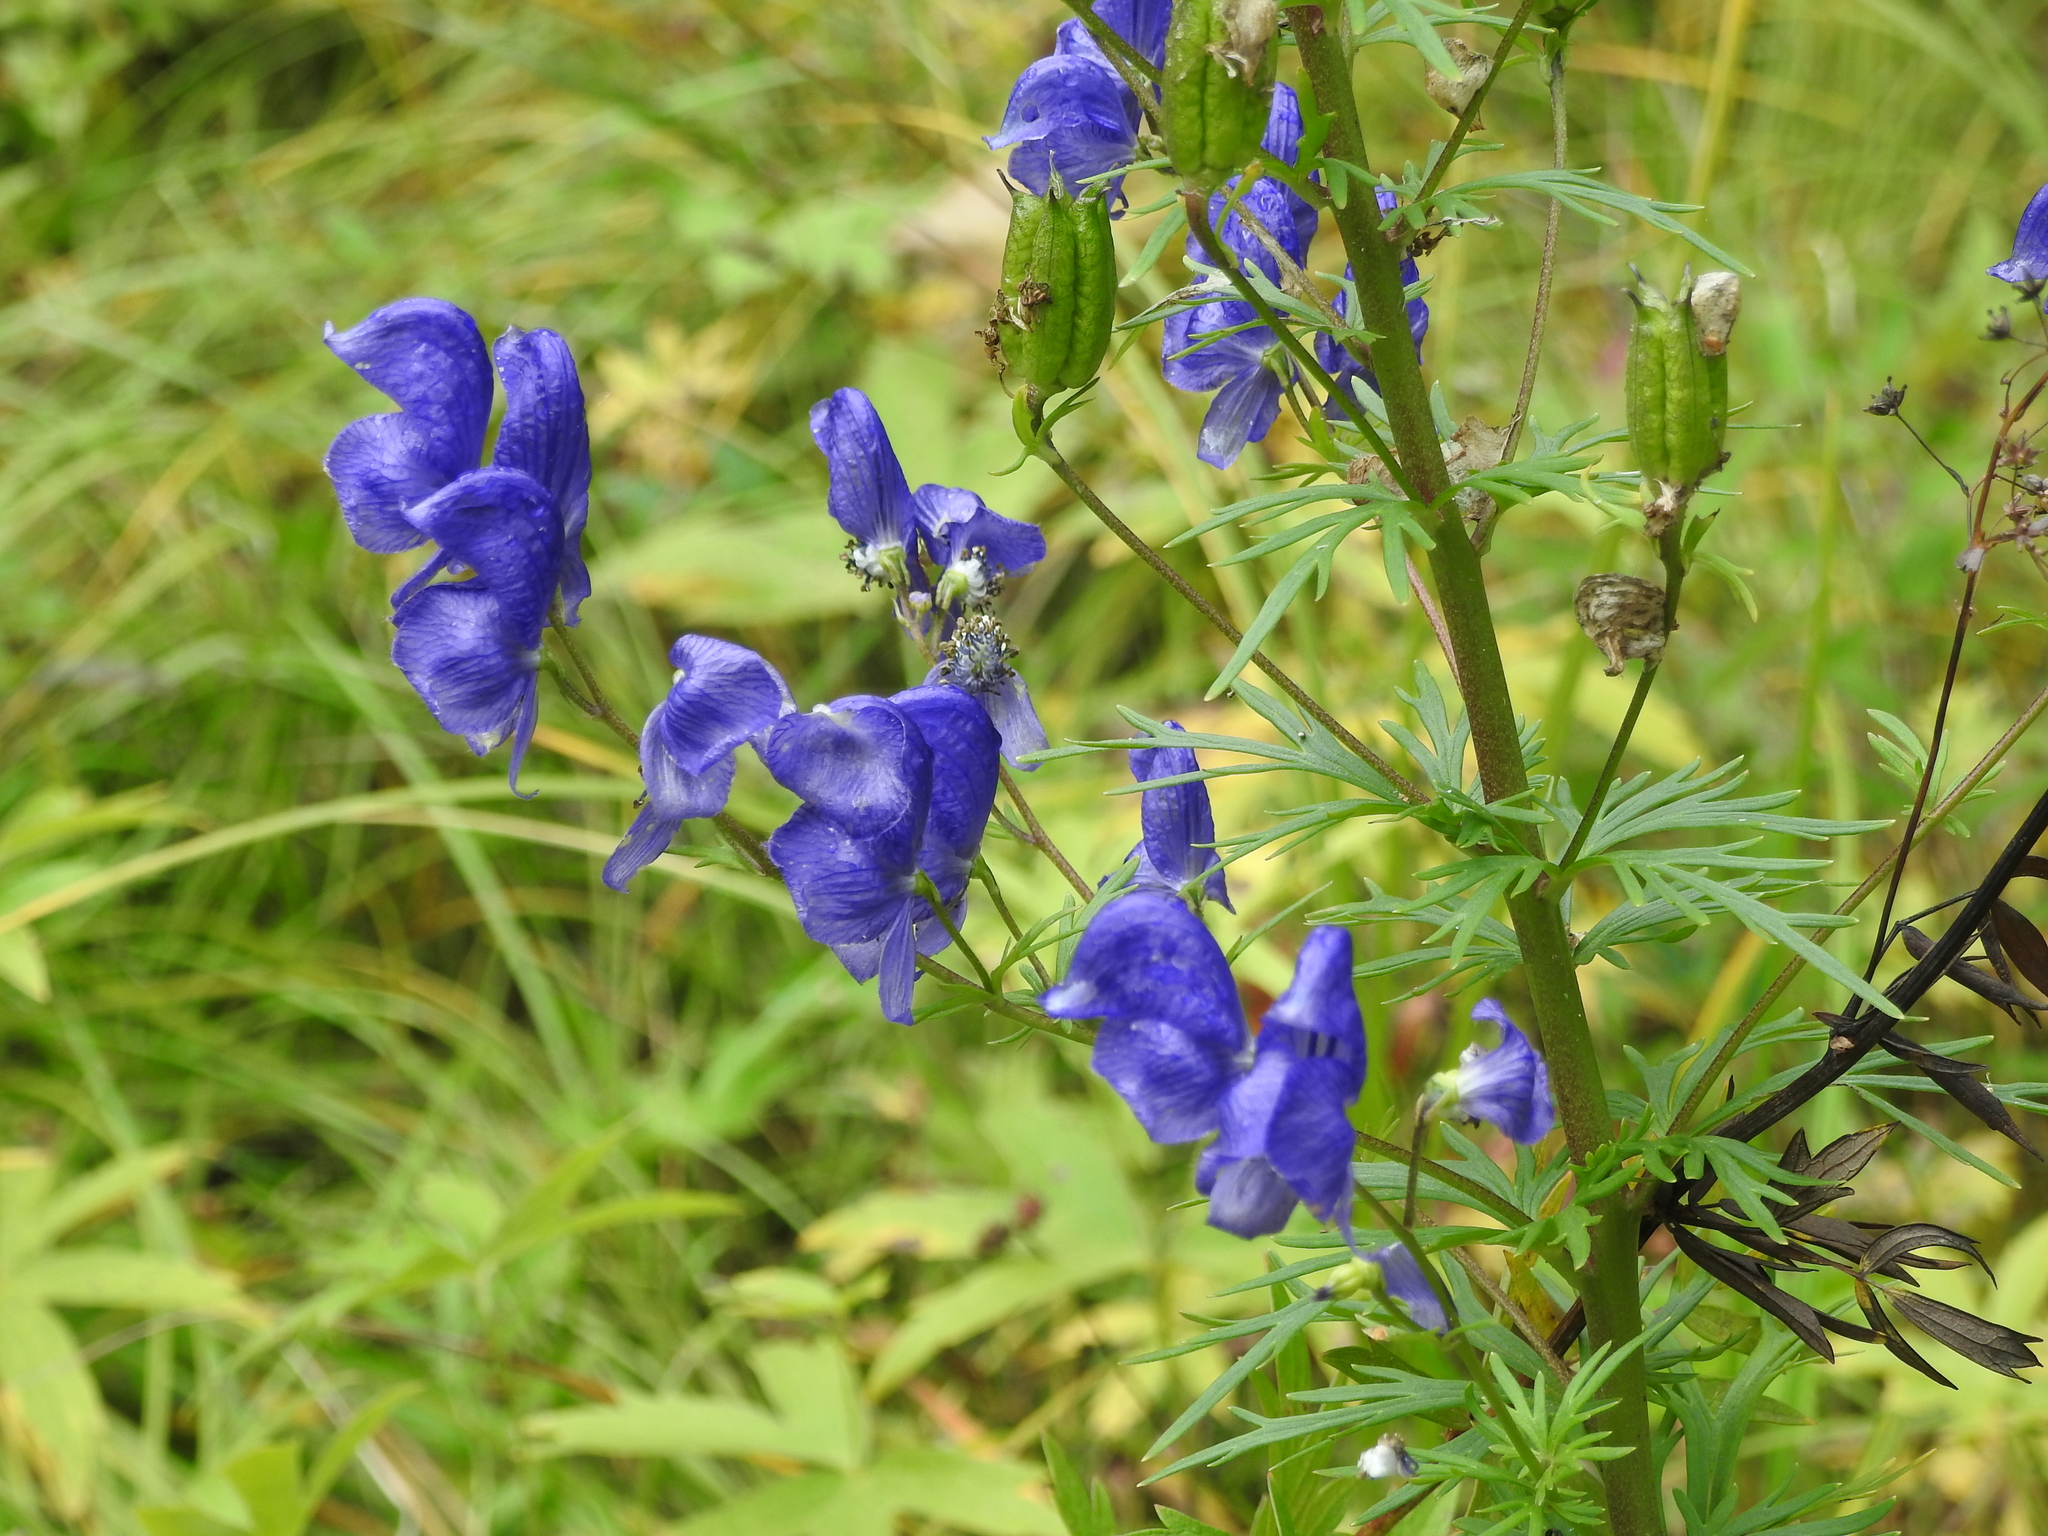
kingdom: Plantae
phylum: Tracheophyta
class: Magnoliopsida
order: Ranunculales
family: Ranunculaceae
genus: Aconitum
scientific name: Aconitum baicalense
